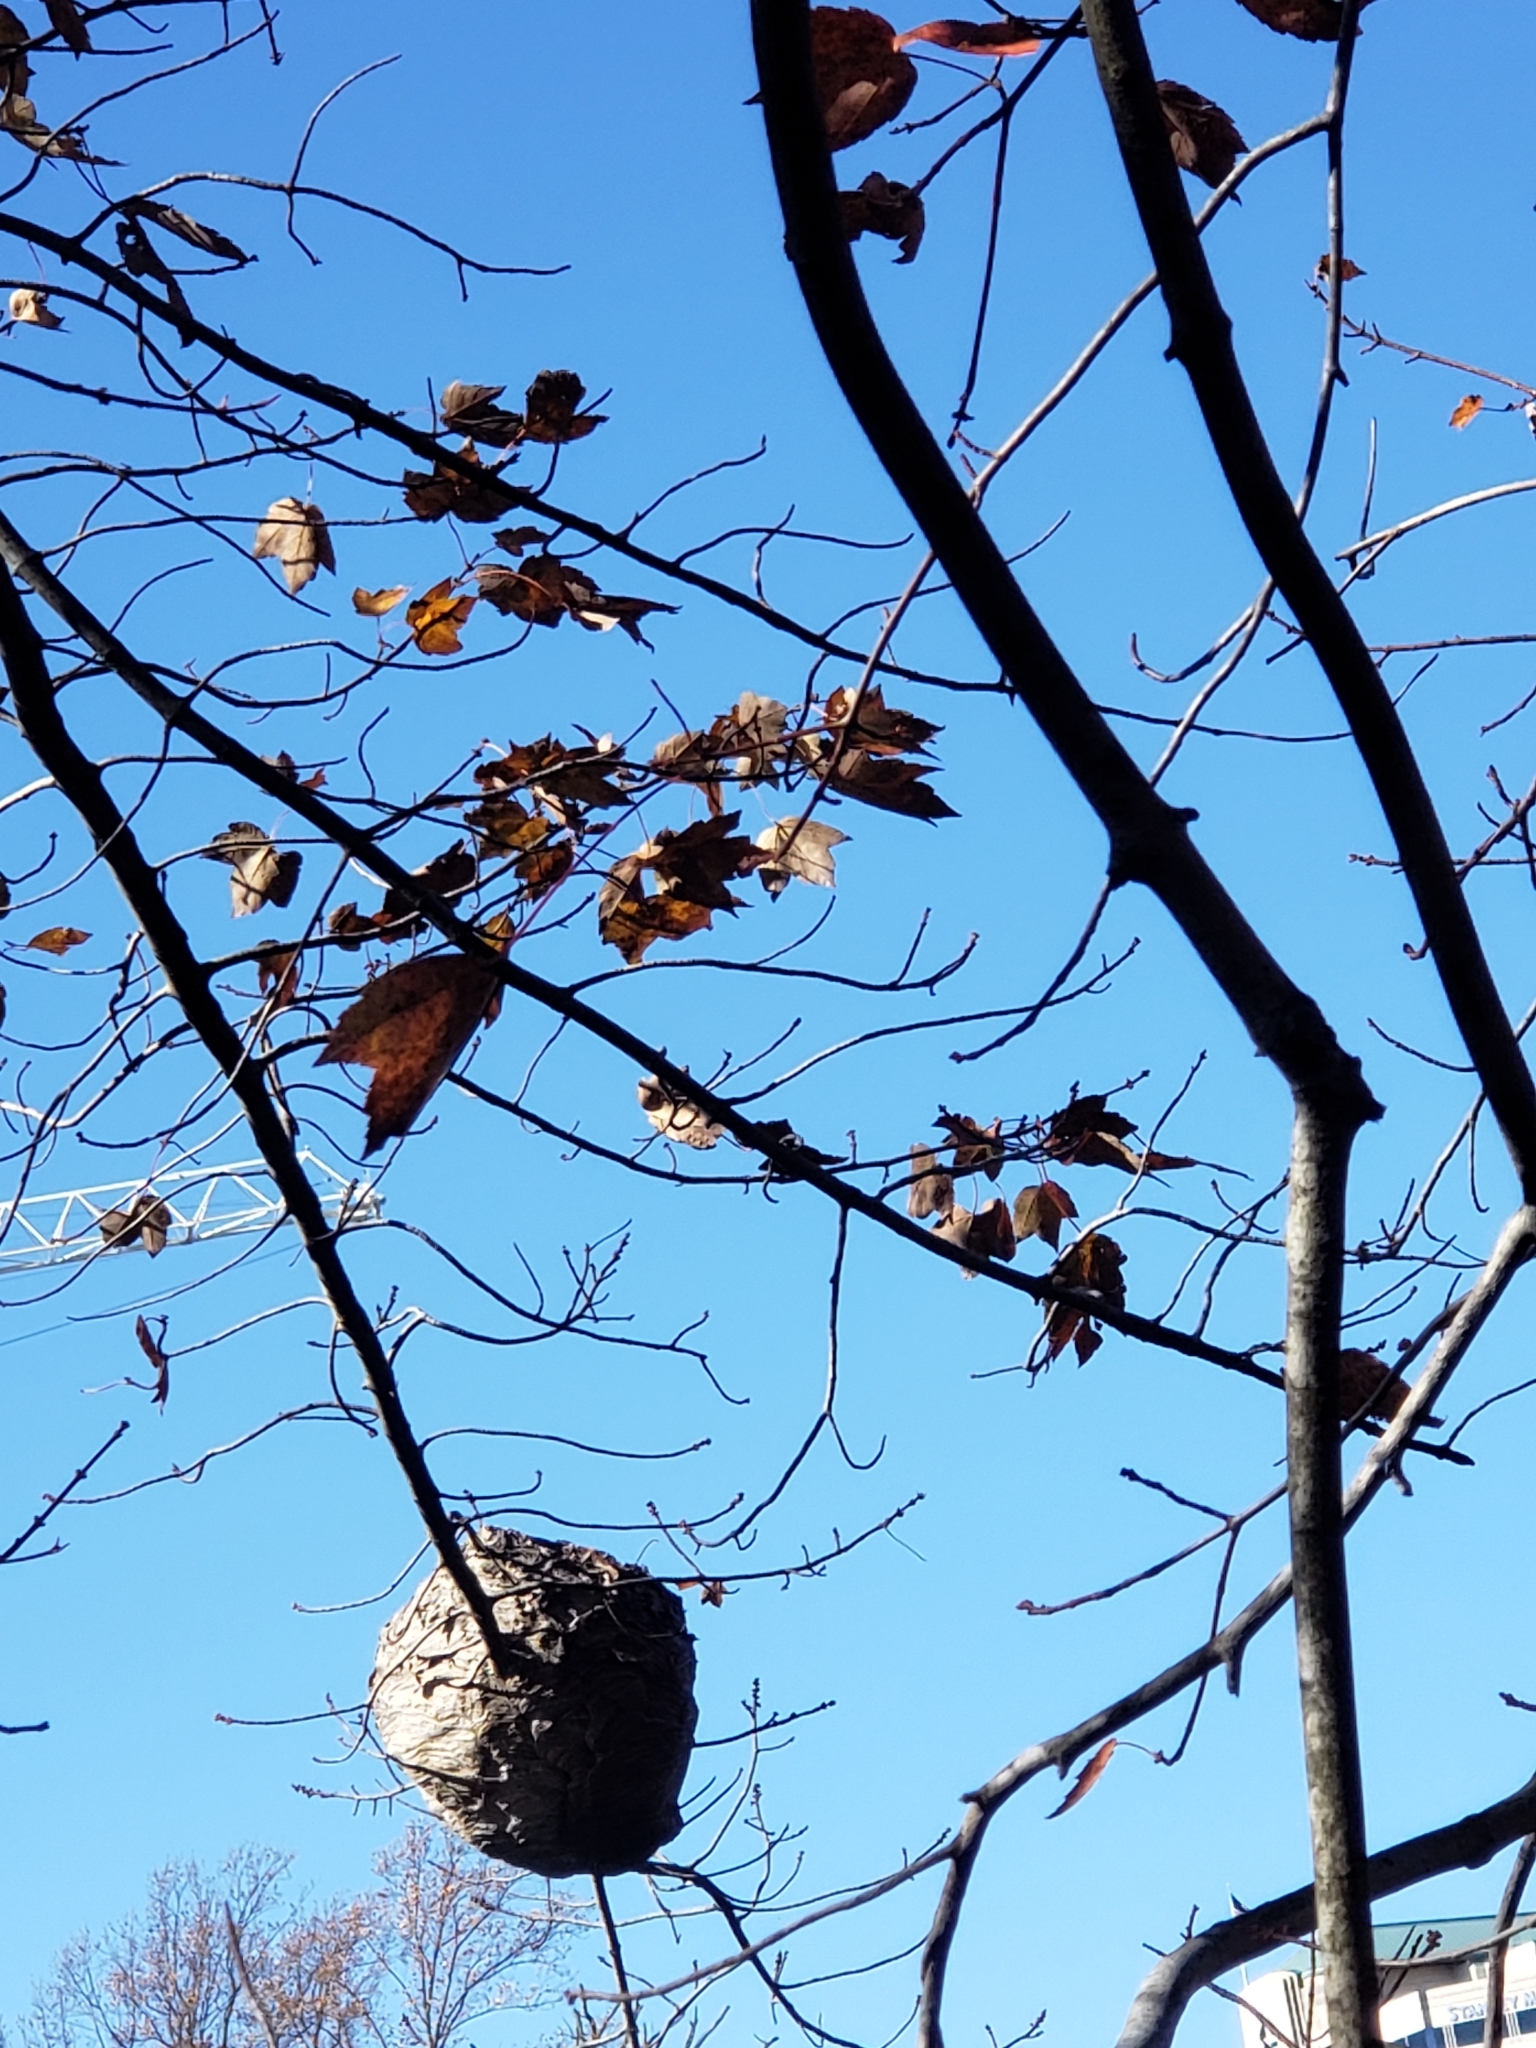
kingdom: Animalia
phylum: Arthropoda
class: Insecta
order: Hymenoptera
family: Vespidae
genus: Dolichovespula
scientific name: Dolichovespula
